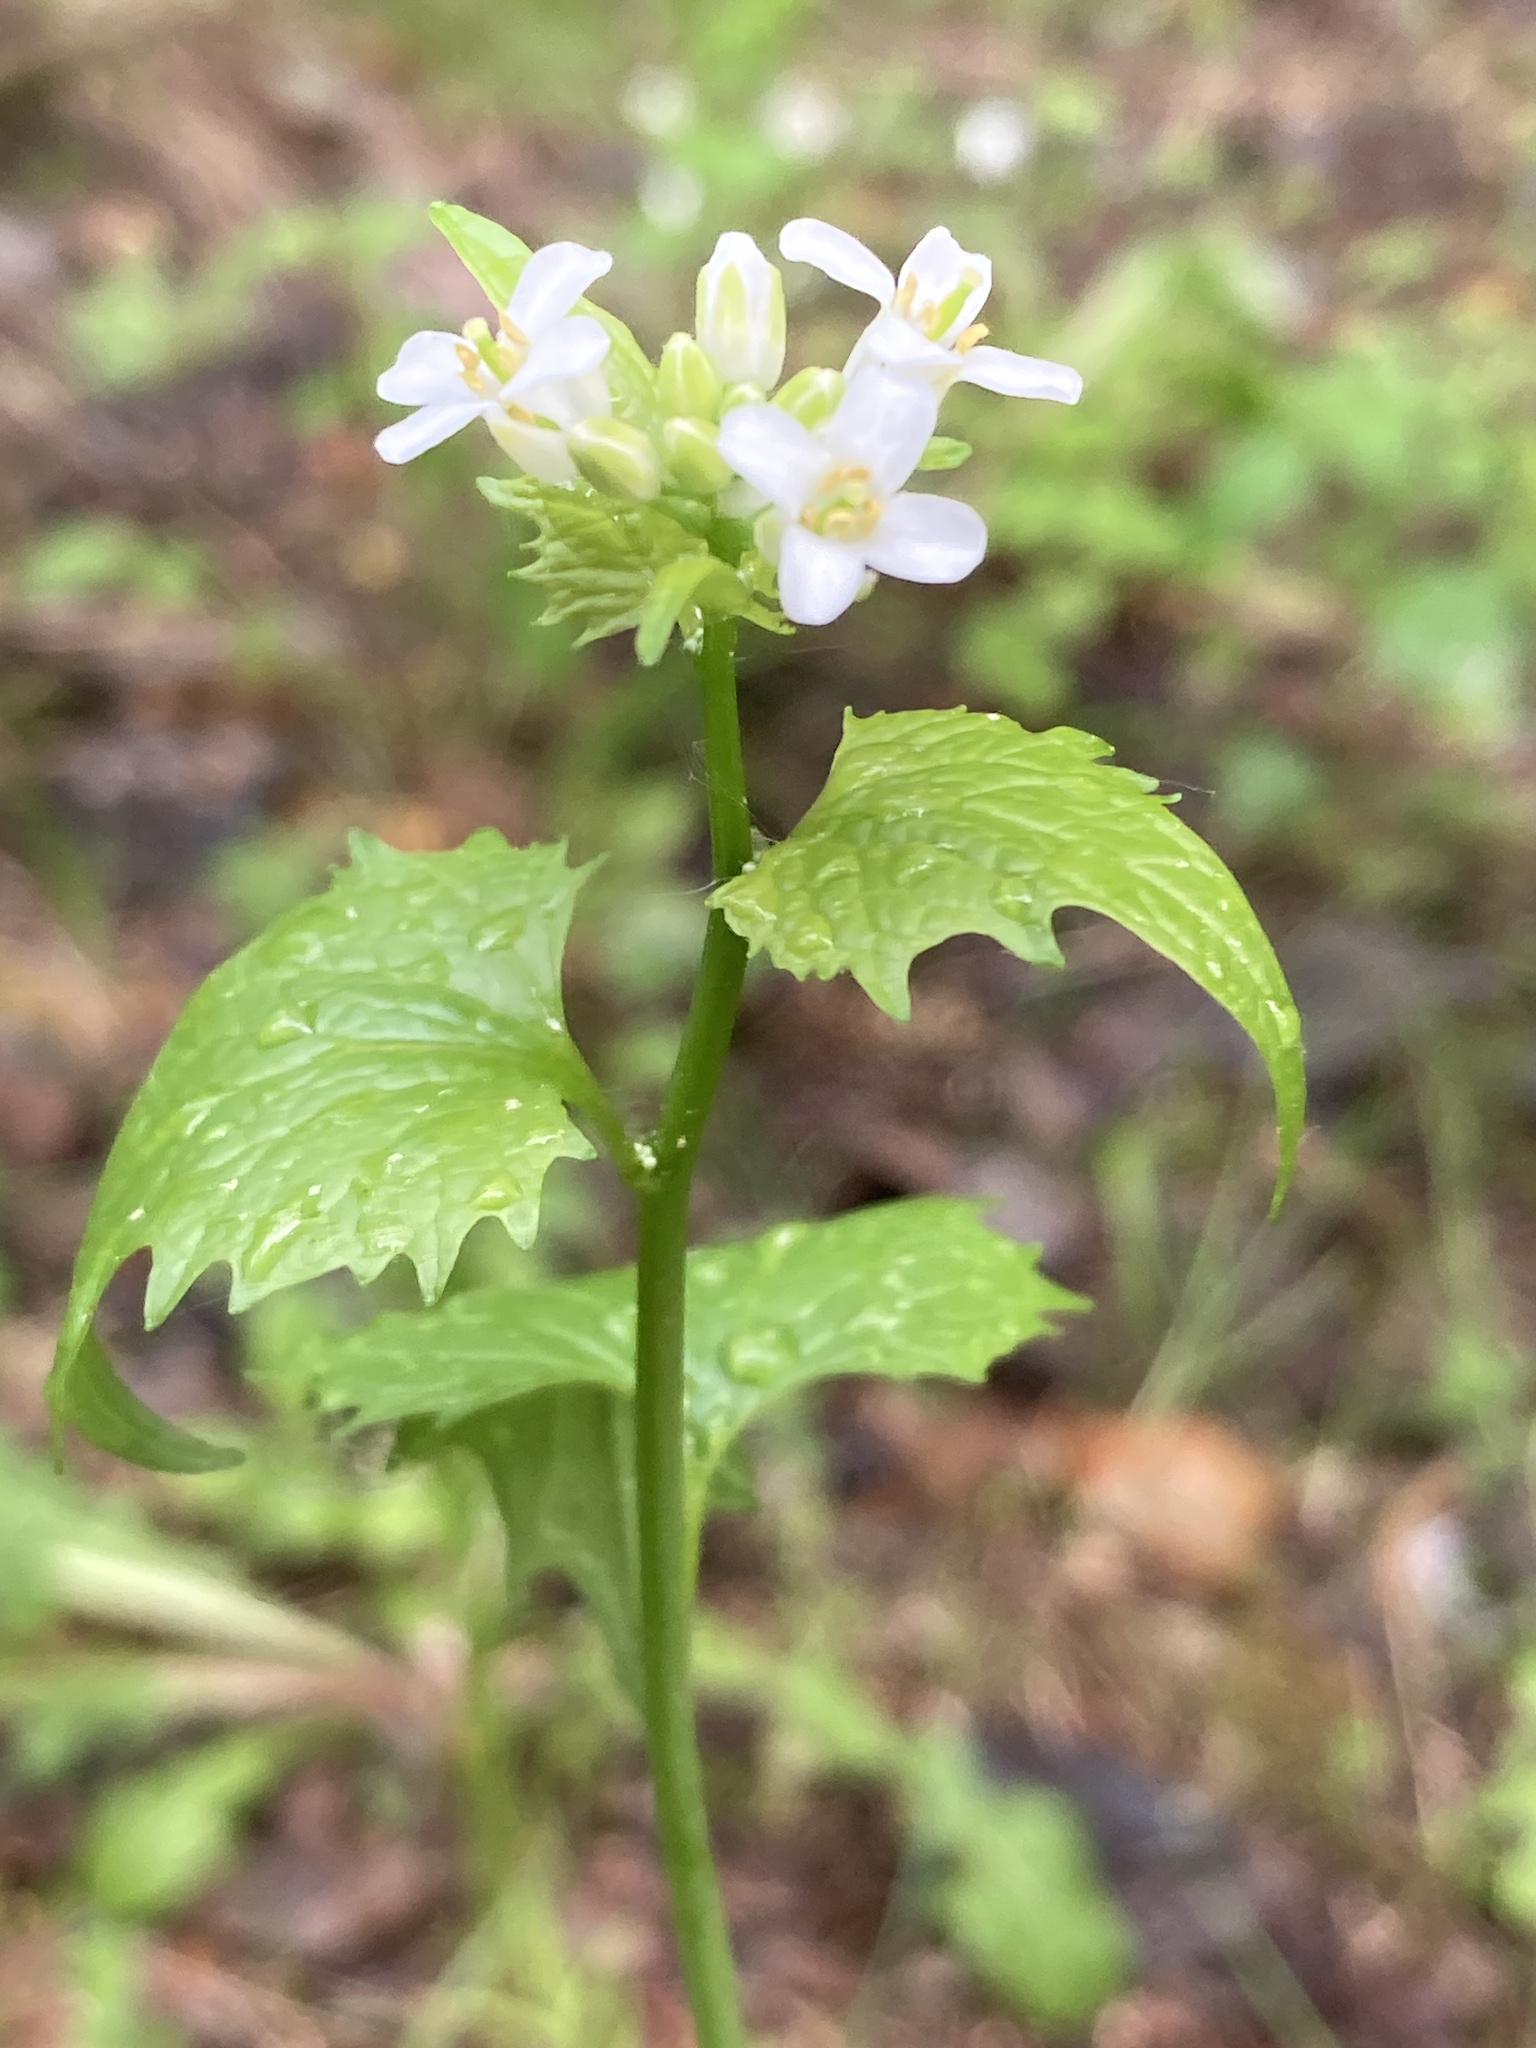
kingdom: Plantae
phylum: Tracheophyta
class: Magnoliopsida
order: Brassicales
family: Brassicaceae
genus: Alliaria
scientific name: Alliaria petiolata
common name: Garlic mustard
